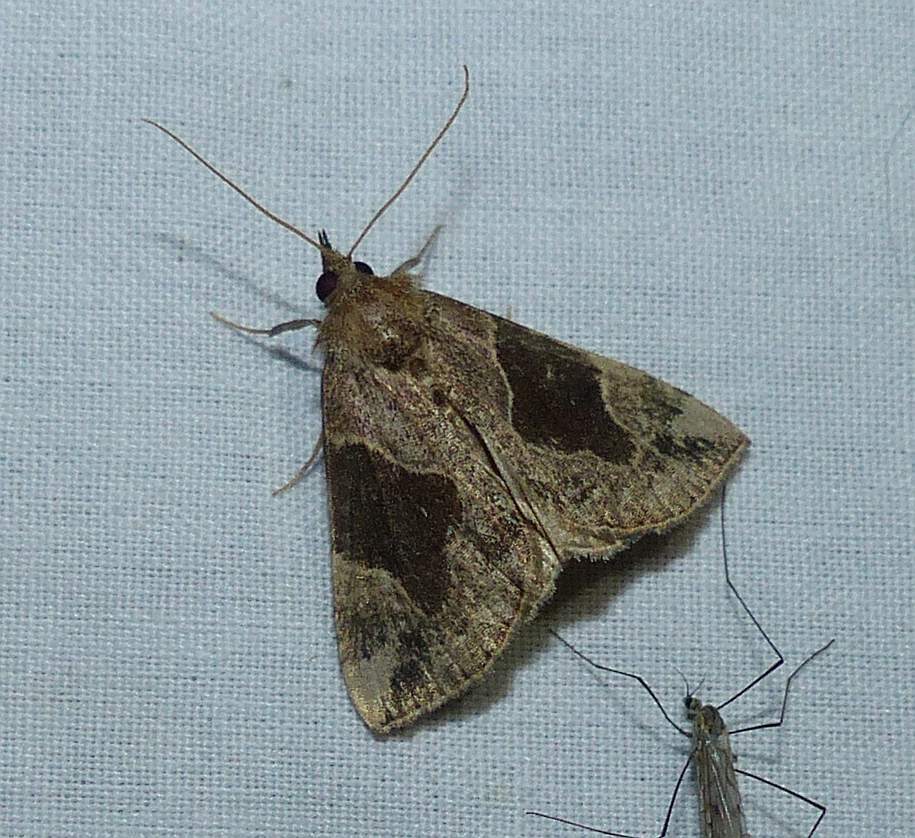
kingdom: Animalia
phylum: Arthropoda
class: Insecta
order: Lepidoptera
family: Erebidae
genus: Hypena
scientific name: Hypena manalis
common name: Flowing-line bomolocha moth
